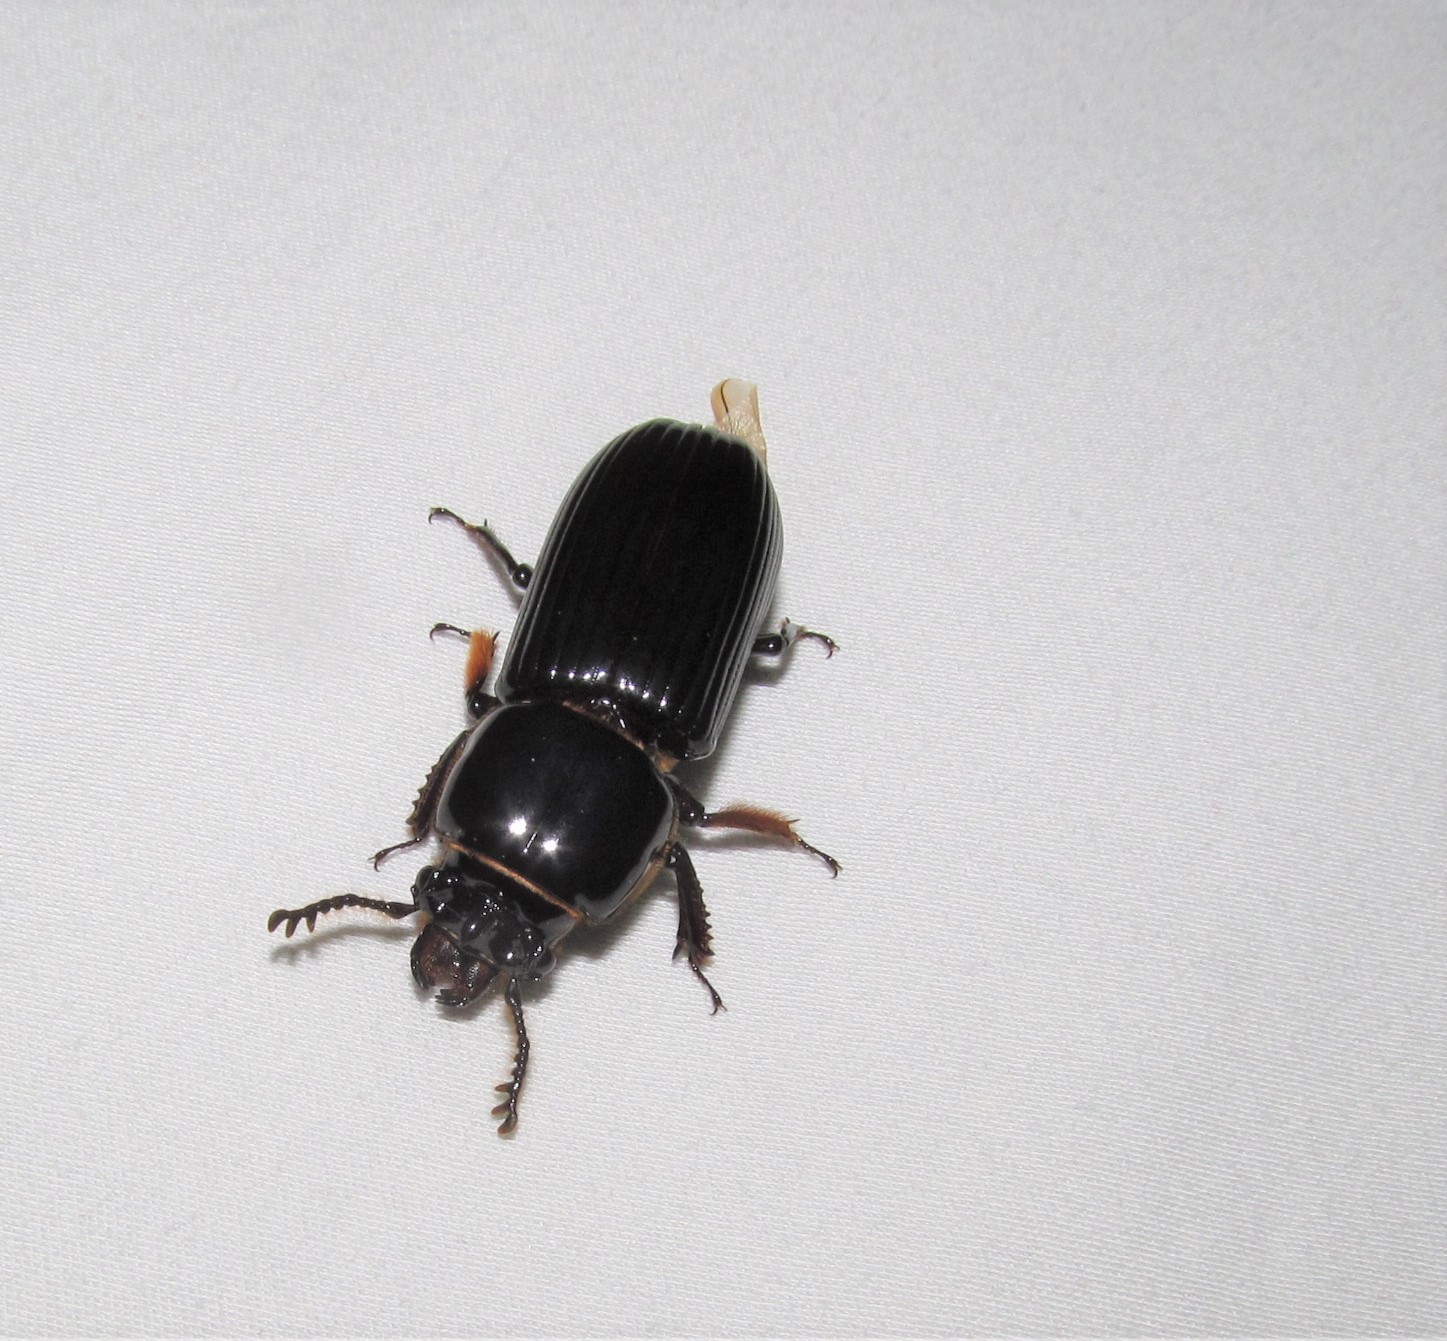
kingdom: Animalia
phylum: Arthropoda
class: Insecta
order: Coleoptera
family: Passalidae
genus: Odontotaenius
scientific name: Odontotaenius disjunctus
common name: Patent leather beetle
